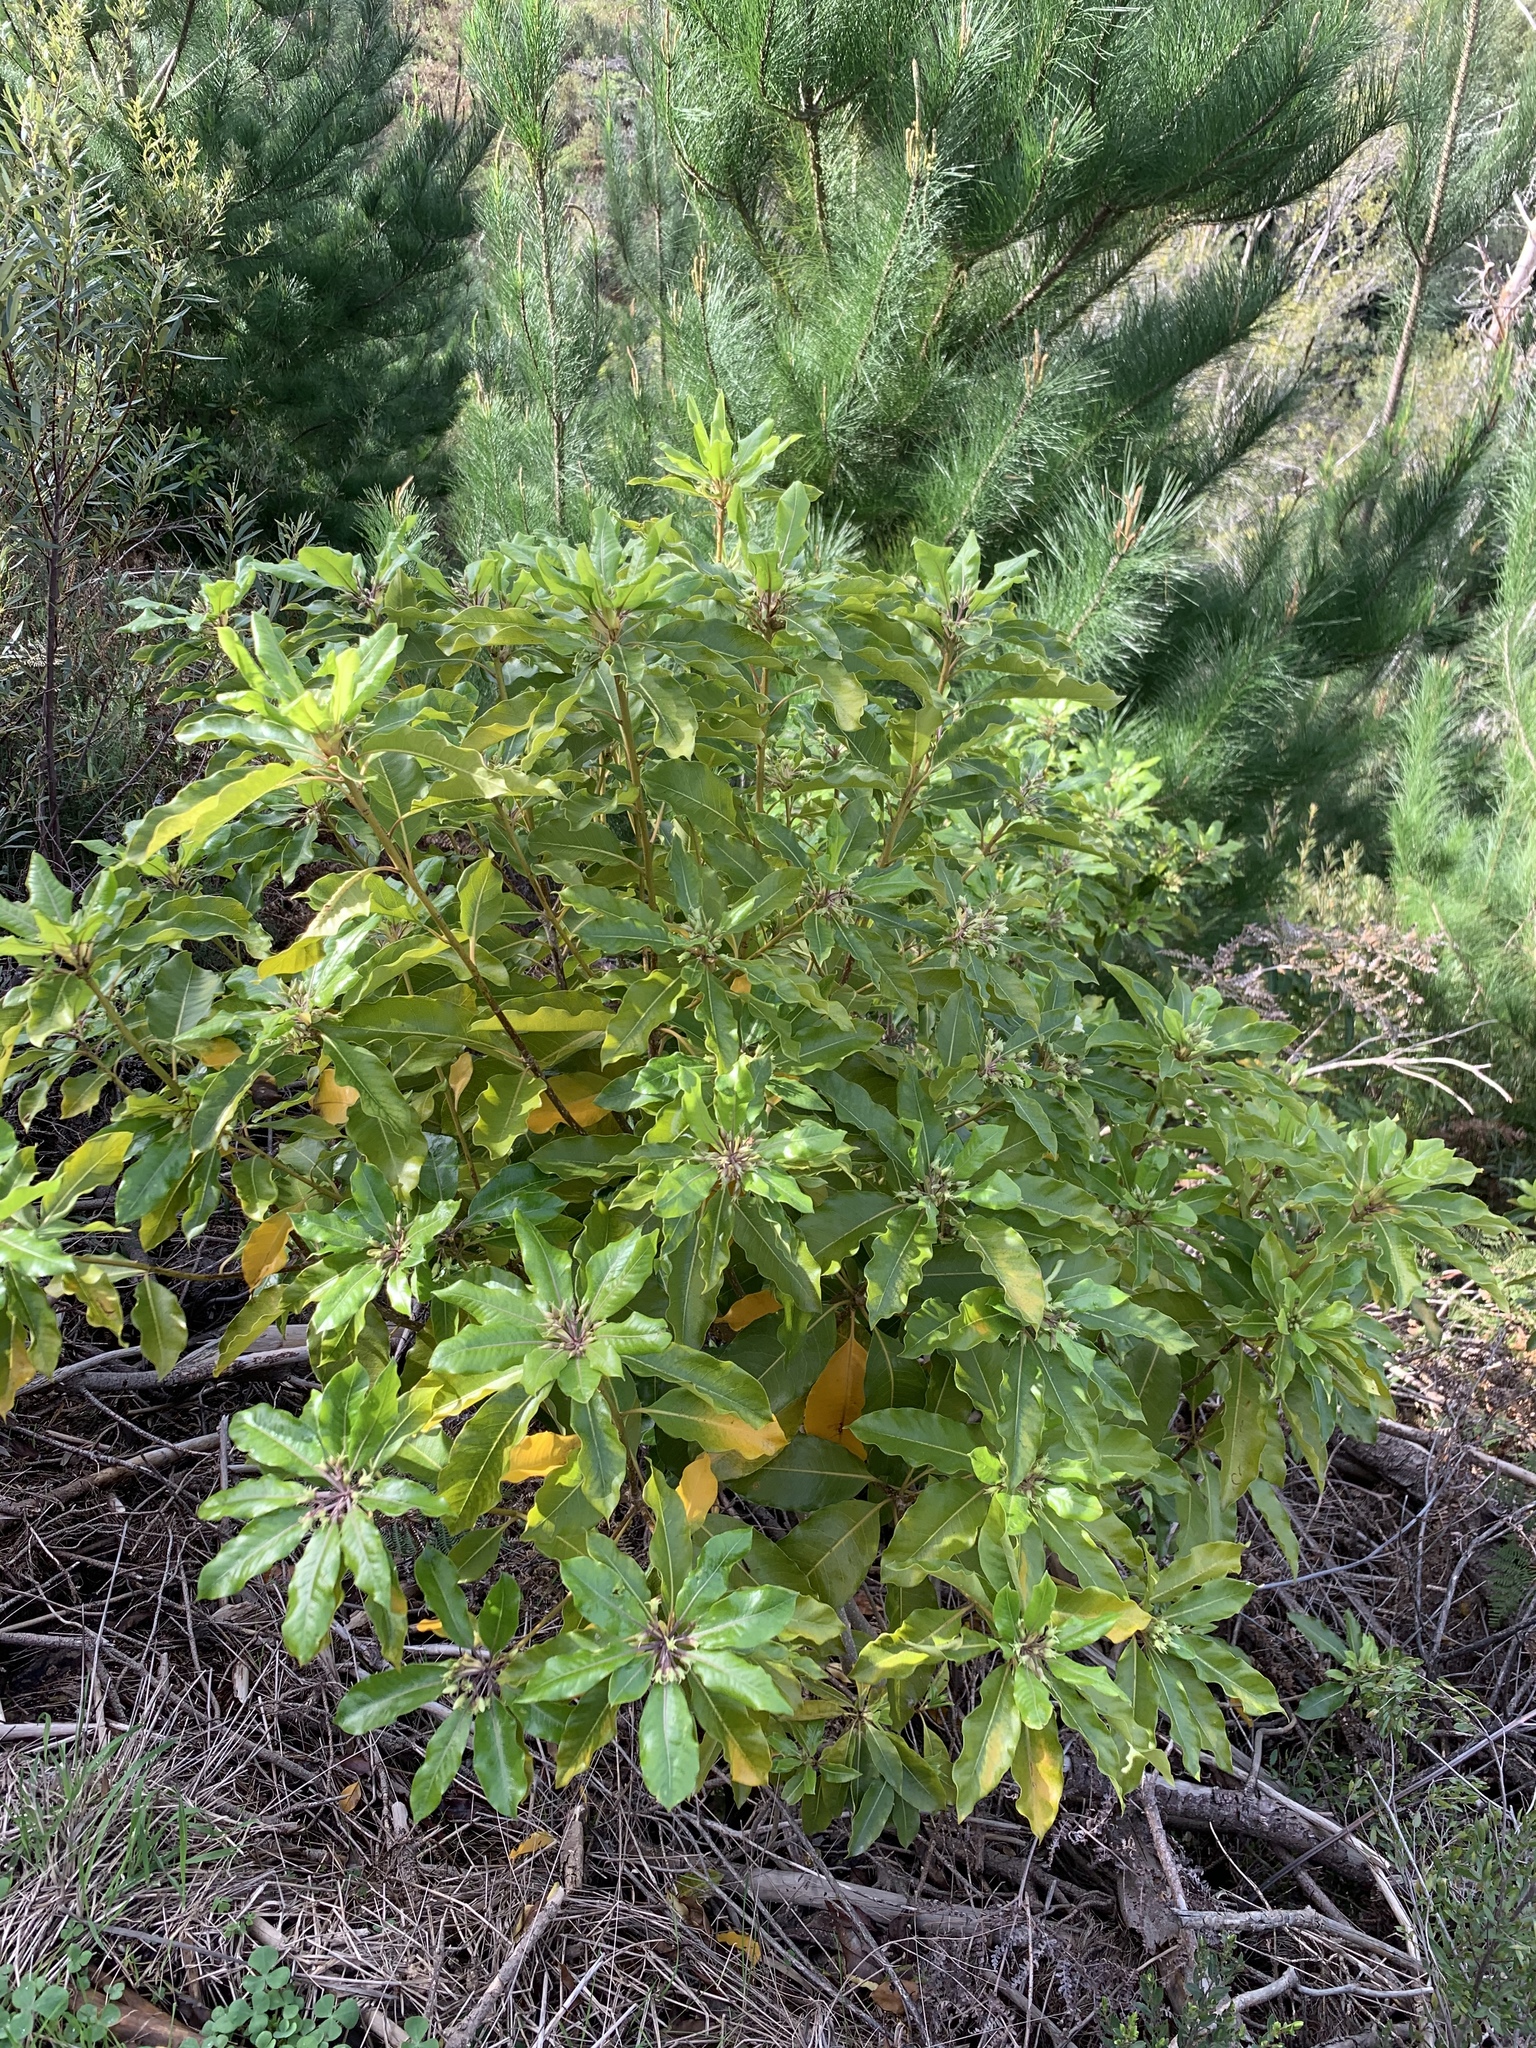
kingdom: Plantae
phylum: Tracheophyta
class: Magnoliopsida
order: Apiales
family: Pittosporaceae
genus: Pittosporum
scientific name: Pittosporum undulatum
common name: Australian cheesewood
